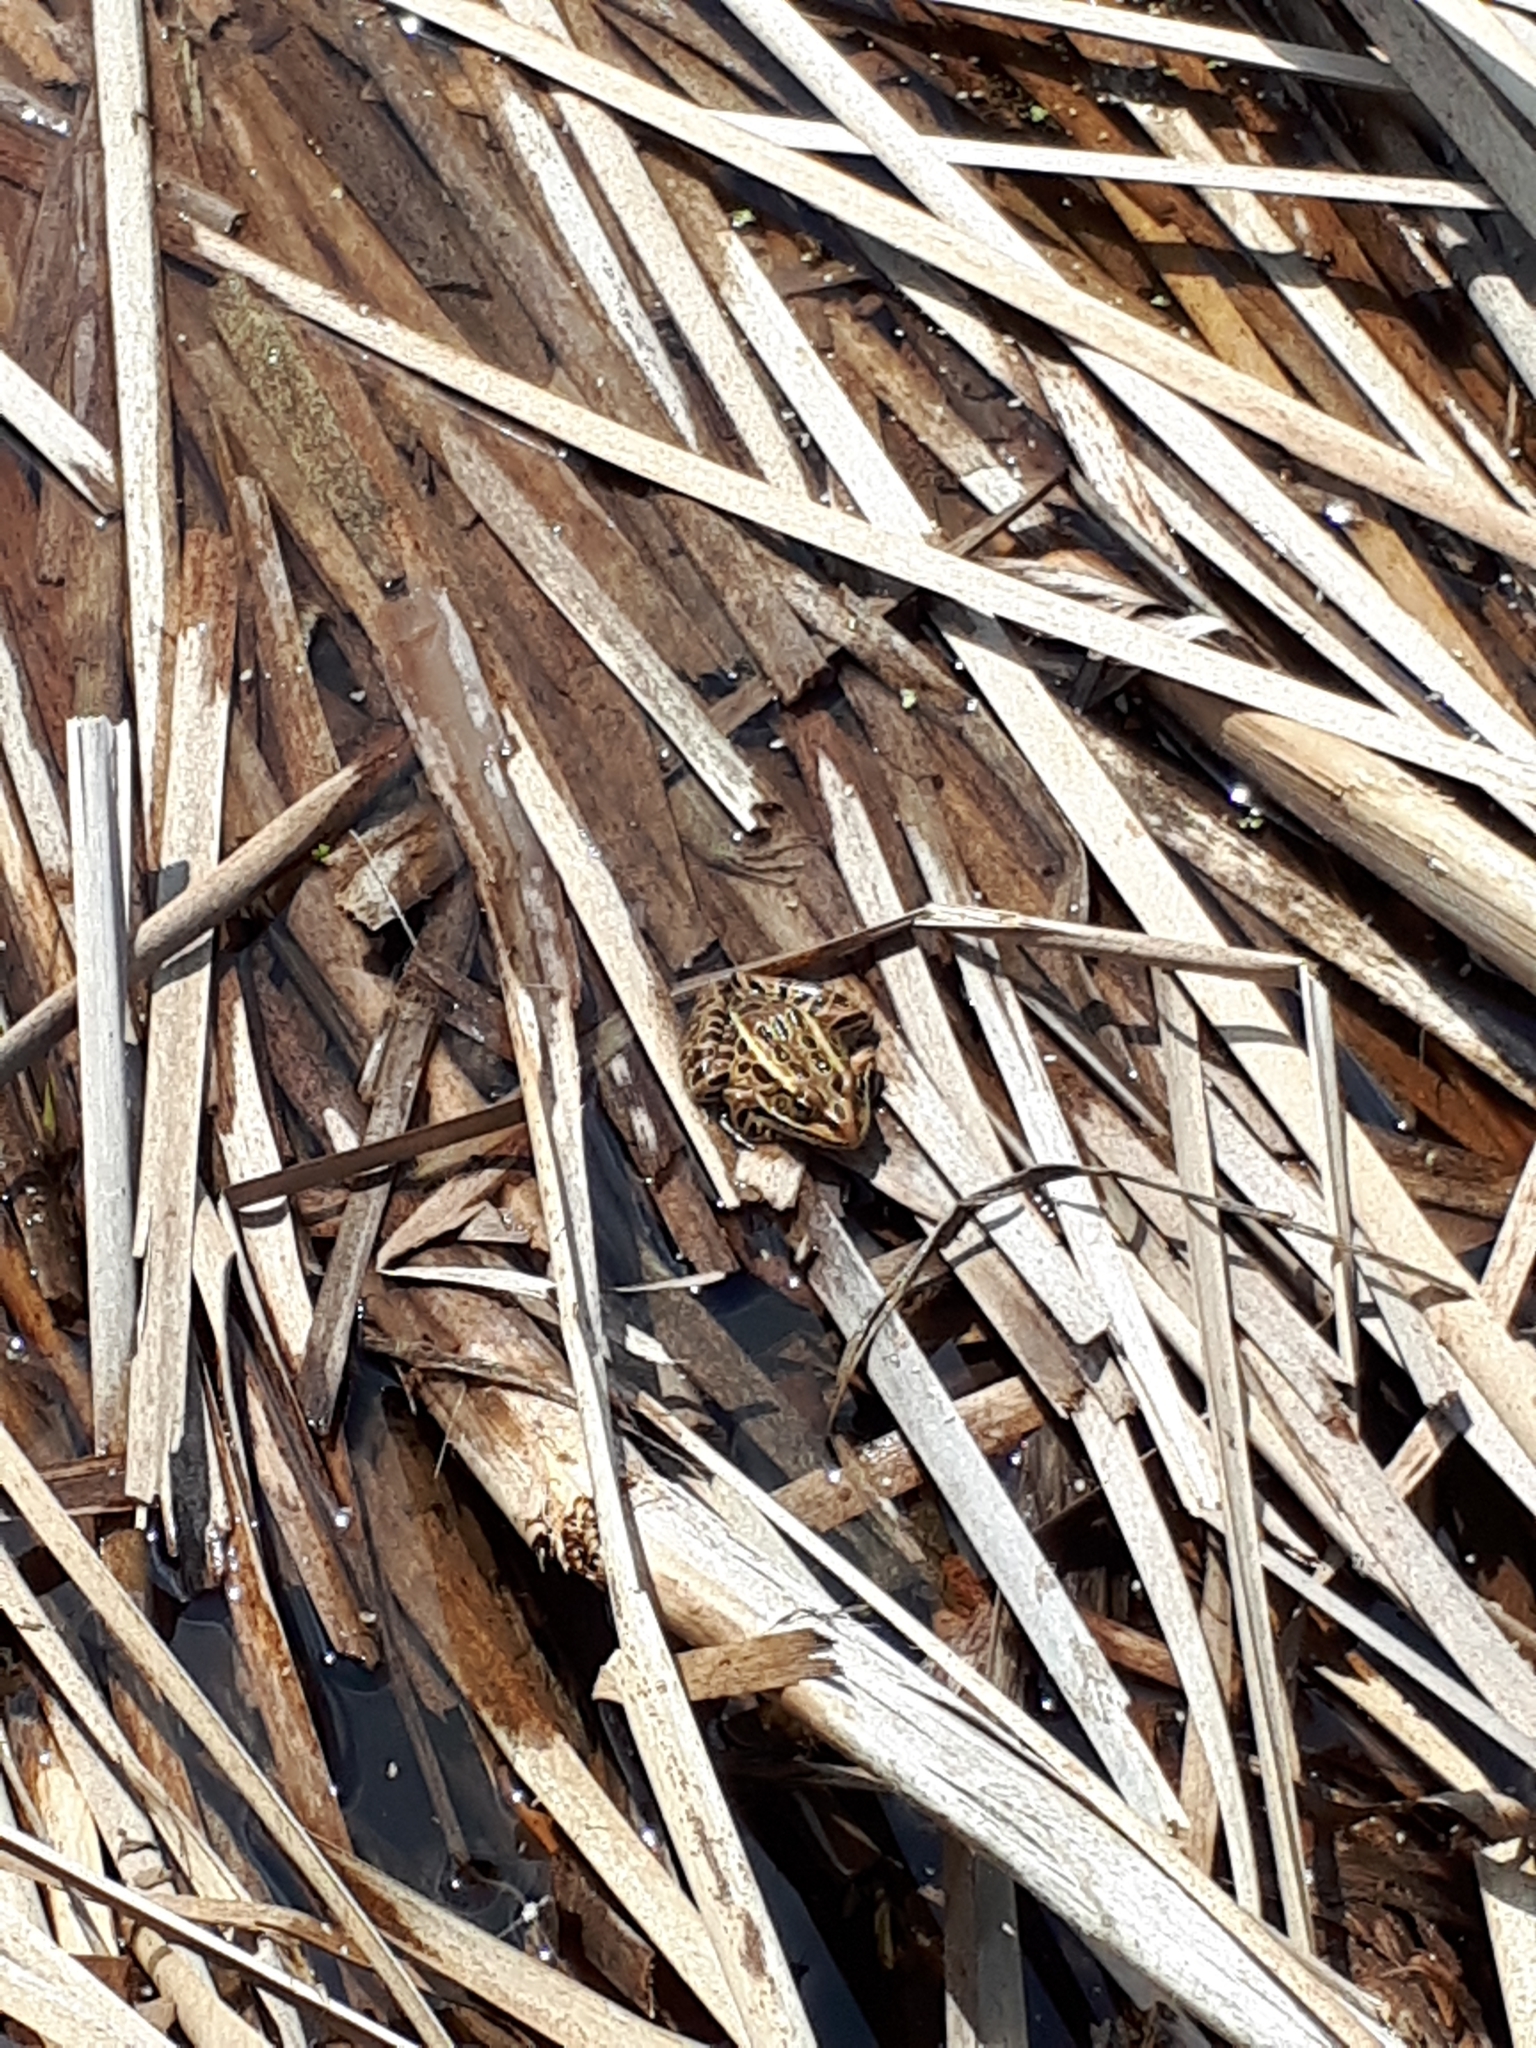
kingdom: Animalia
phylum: Chordata
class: Amphibia
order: Anura
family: Ranidae
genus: Lithobates
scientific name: Lithobates pipiens
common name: Northern leopard frog
